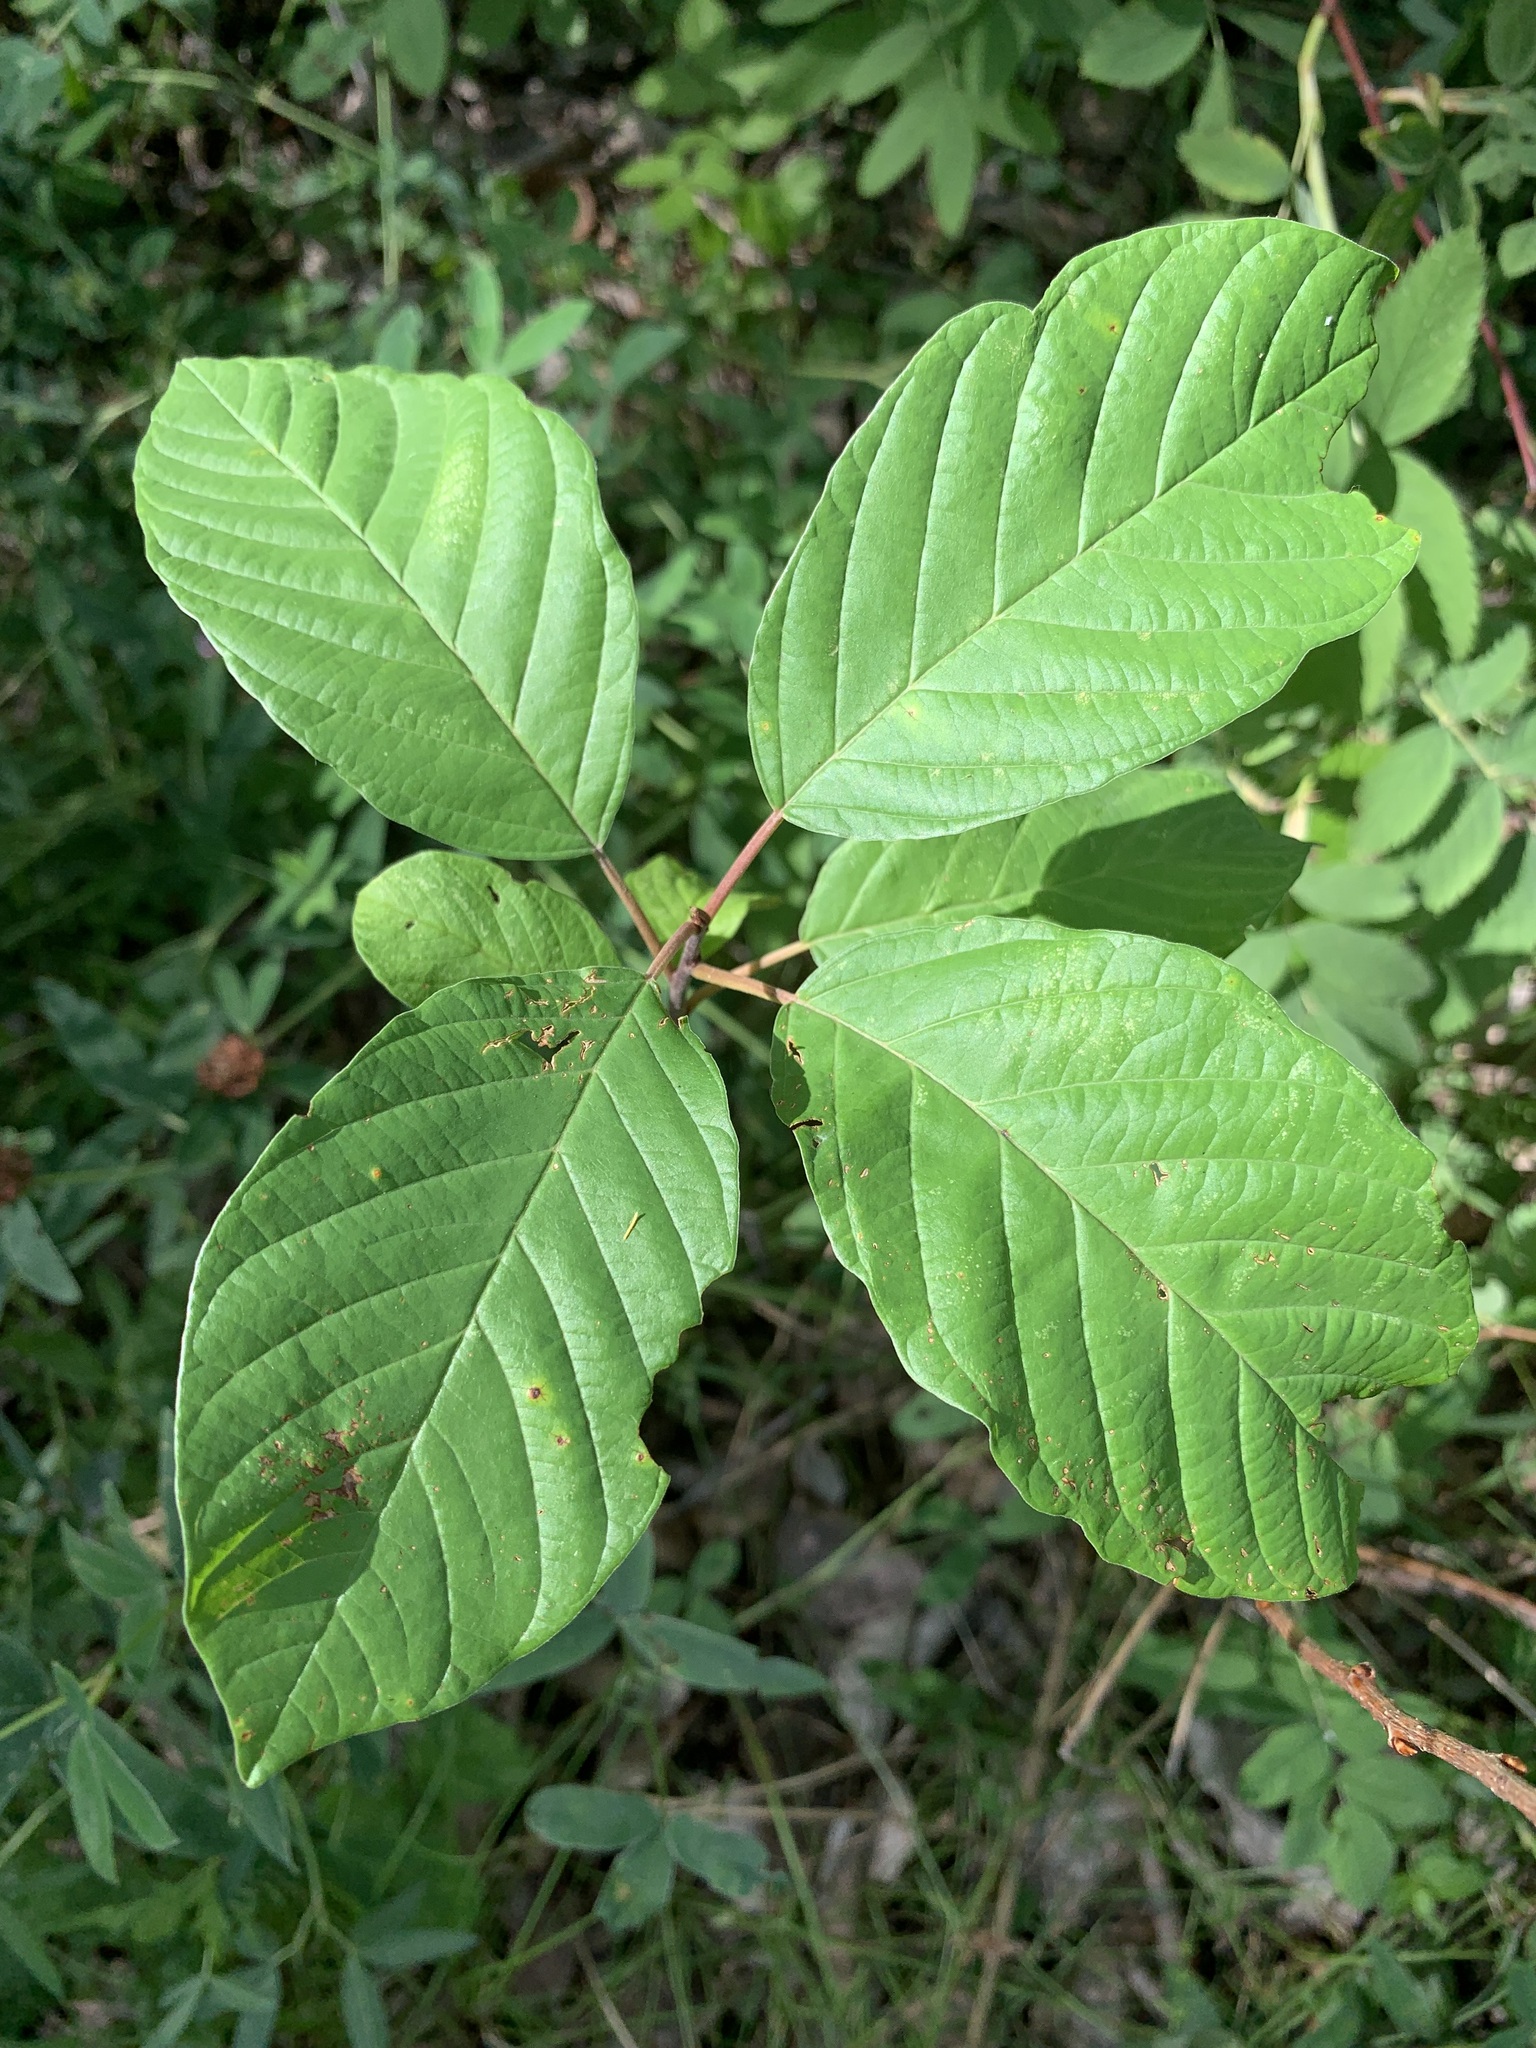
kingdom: Plantae
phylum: Tracheophyta
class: Magnoliopsida
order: Rosales
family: Rhamnaceae
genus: Frangula
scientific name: Frangula alnus
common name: Alder buckthorn
